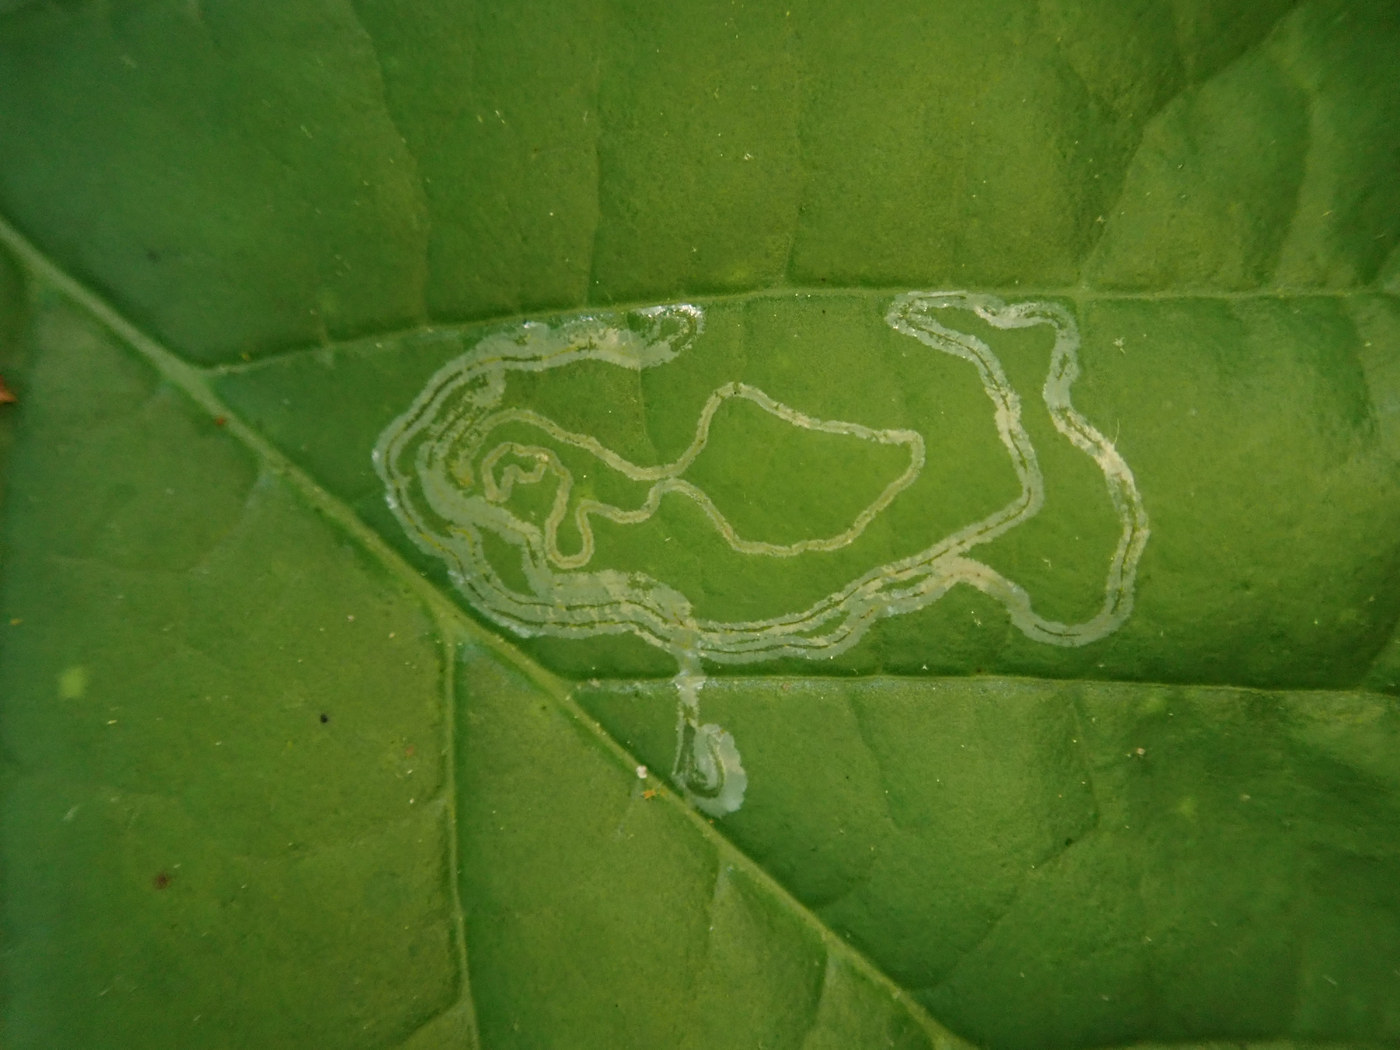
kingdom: Animalia
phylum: Arthropoda
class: Insecta
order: Lepidoptera
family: Gracillariidae
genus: Phyllocnistis
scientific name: Phyllocnistis liriodendronella
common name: Tulip tree leaf miner
